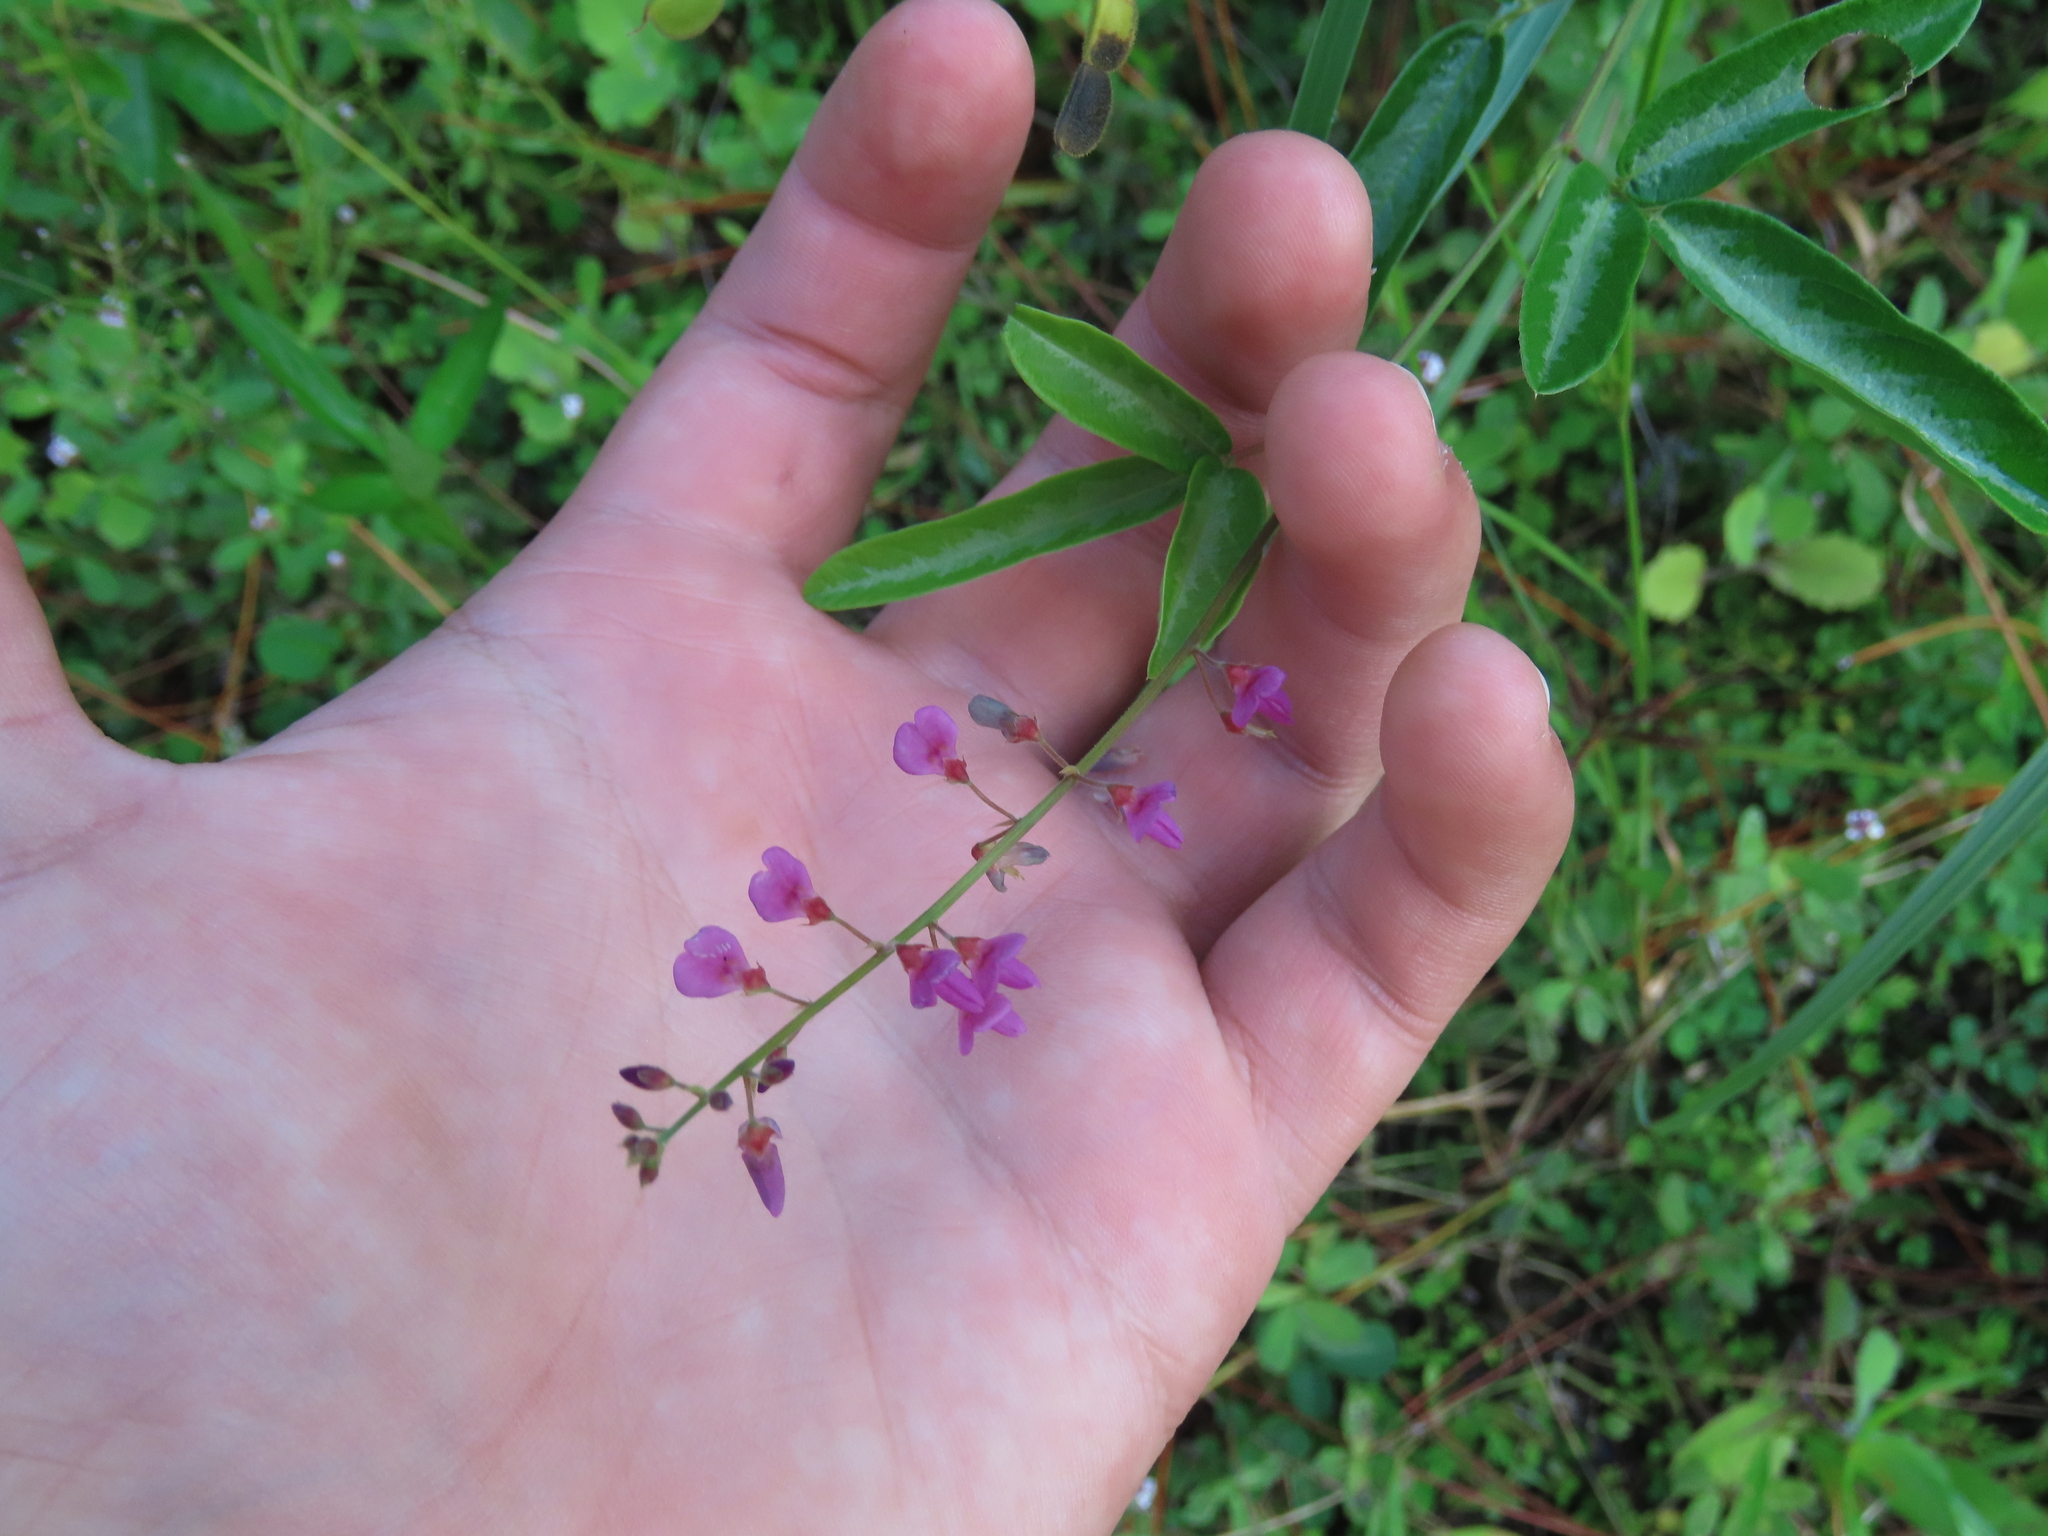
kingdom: Plantae
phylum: Tracheophyta
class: Magnoliopsida
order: Fabales
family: Fabaceae
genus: Desmodium
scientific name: Desmodium incanum
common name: Tickclover
